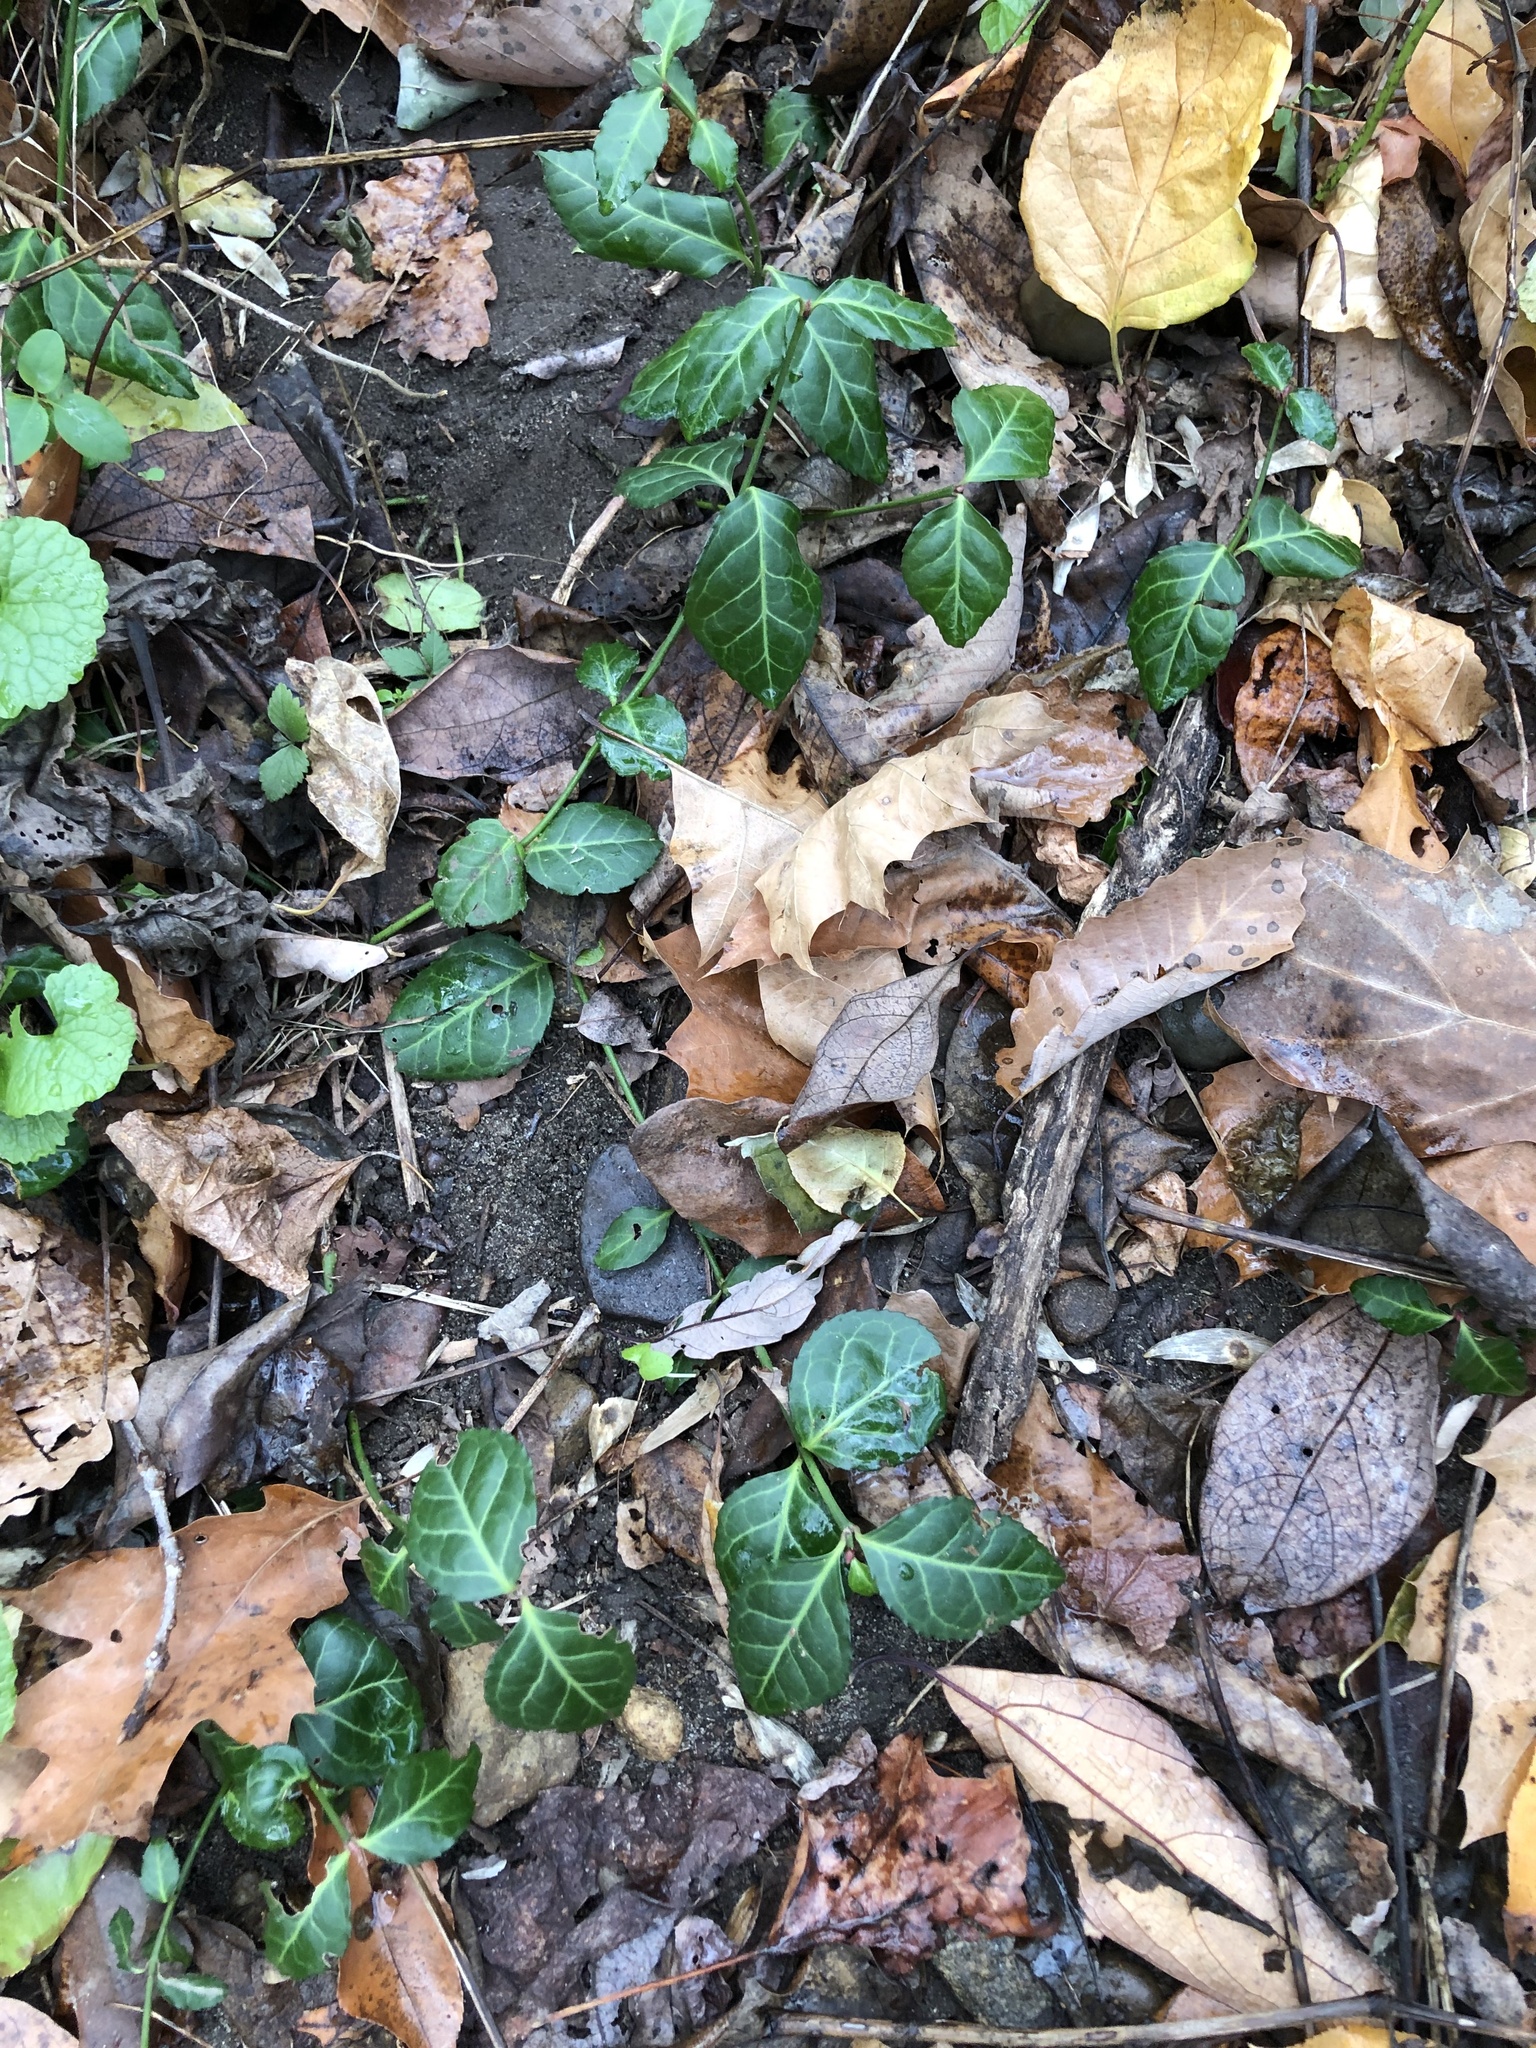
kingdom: Plantae
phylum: Tracheophyta
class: Magnoliopsida
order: Celastrales
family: Celastraceae
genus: Euonymus
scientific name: Euonymus fortunei
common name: Climbing euonymus
